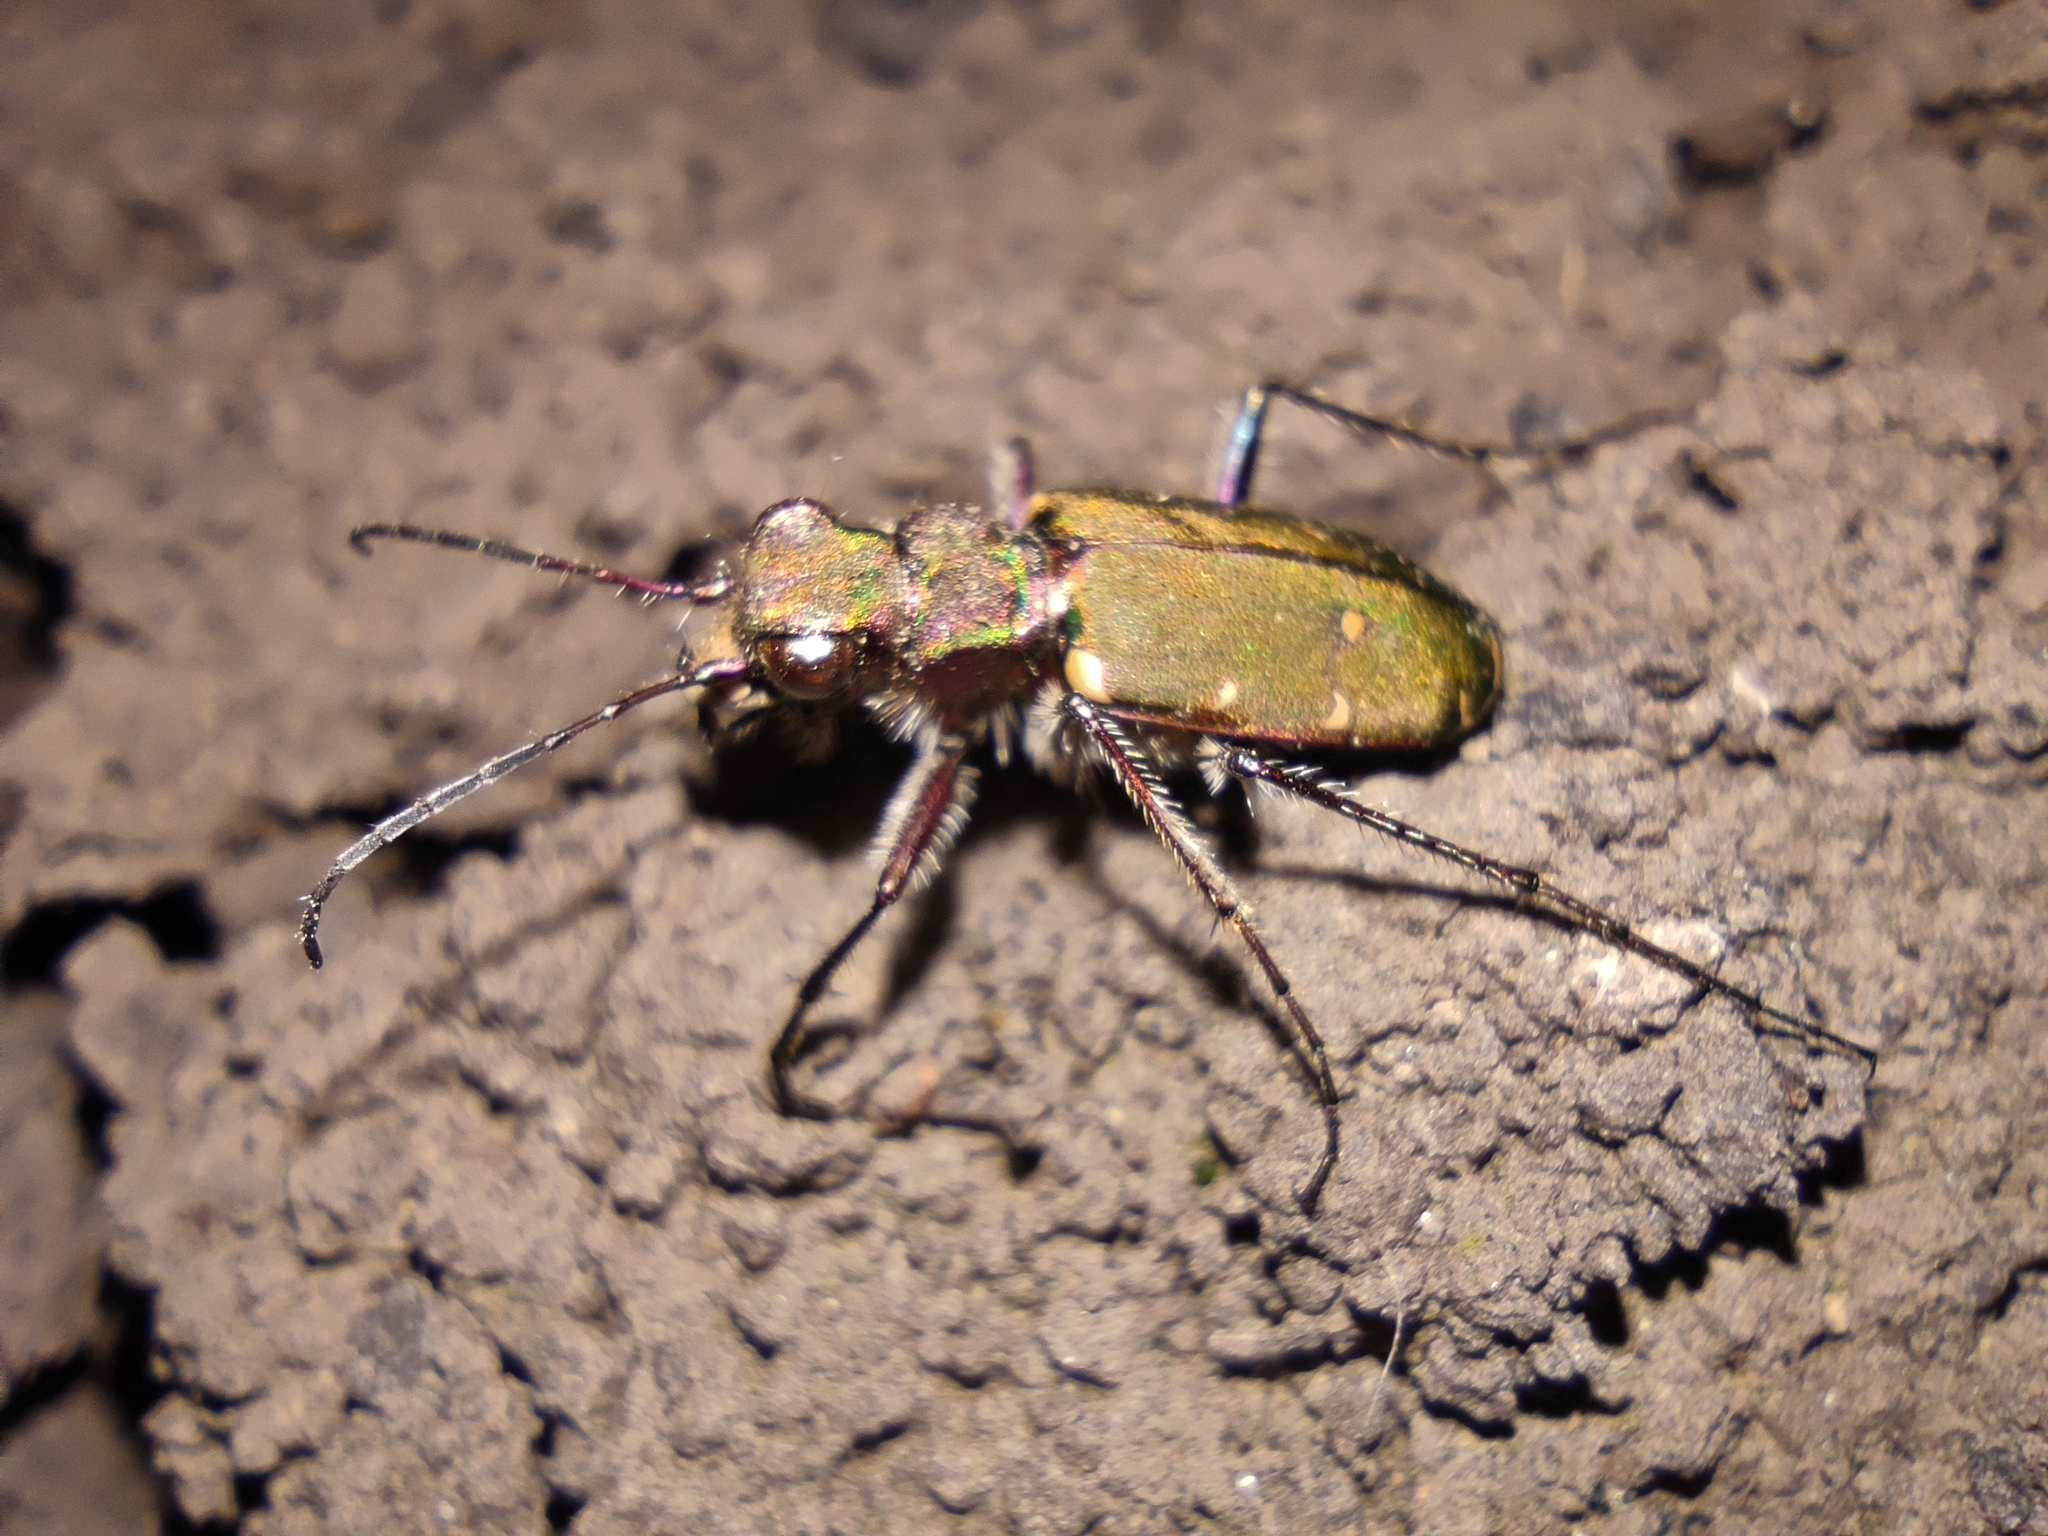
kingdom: Animalia
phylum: Arthropoda
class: Insecta
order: Coleoptera
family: Carabidae
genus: Cicindela
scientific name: Cicindela campestris
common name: Common tiger beetle
